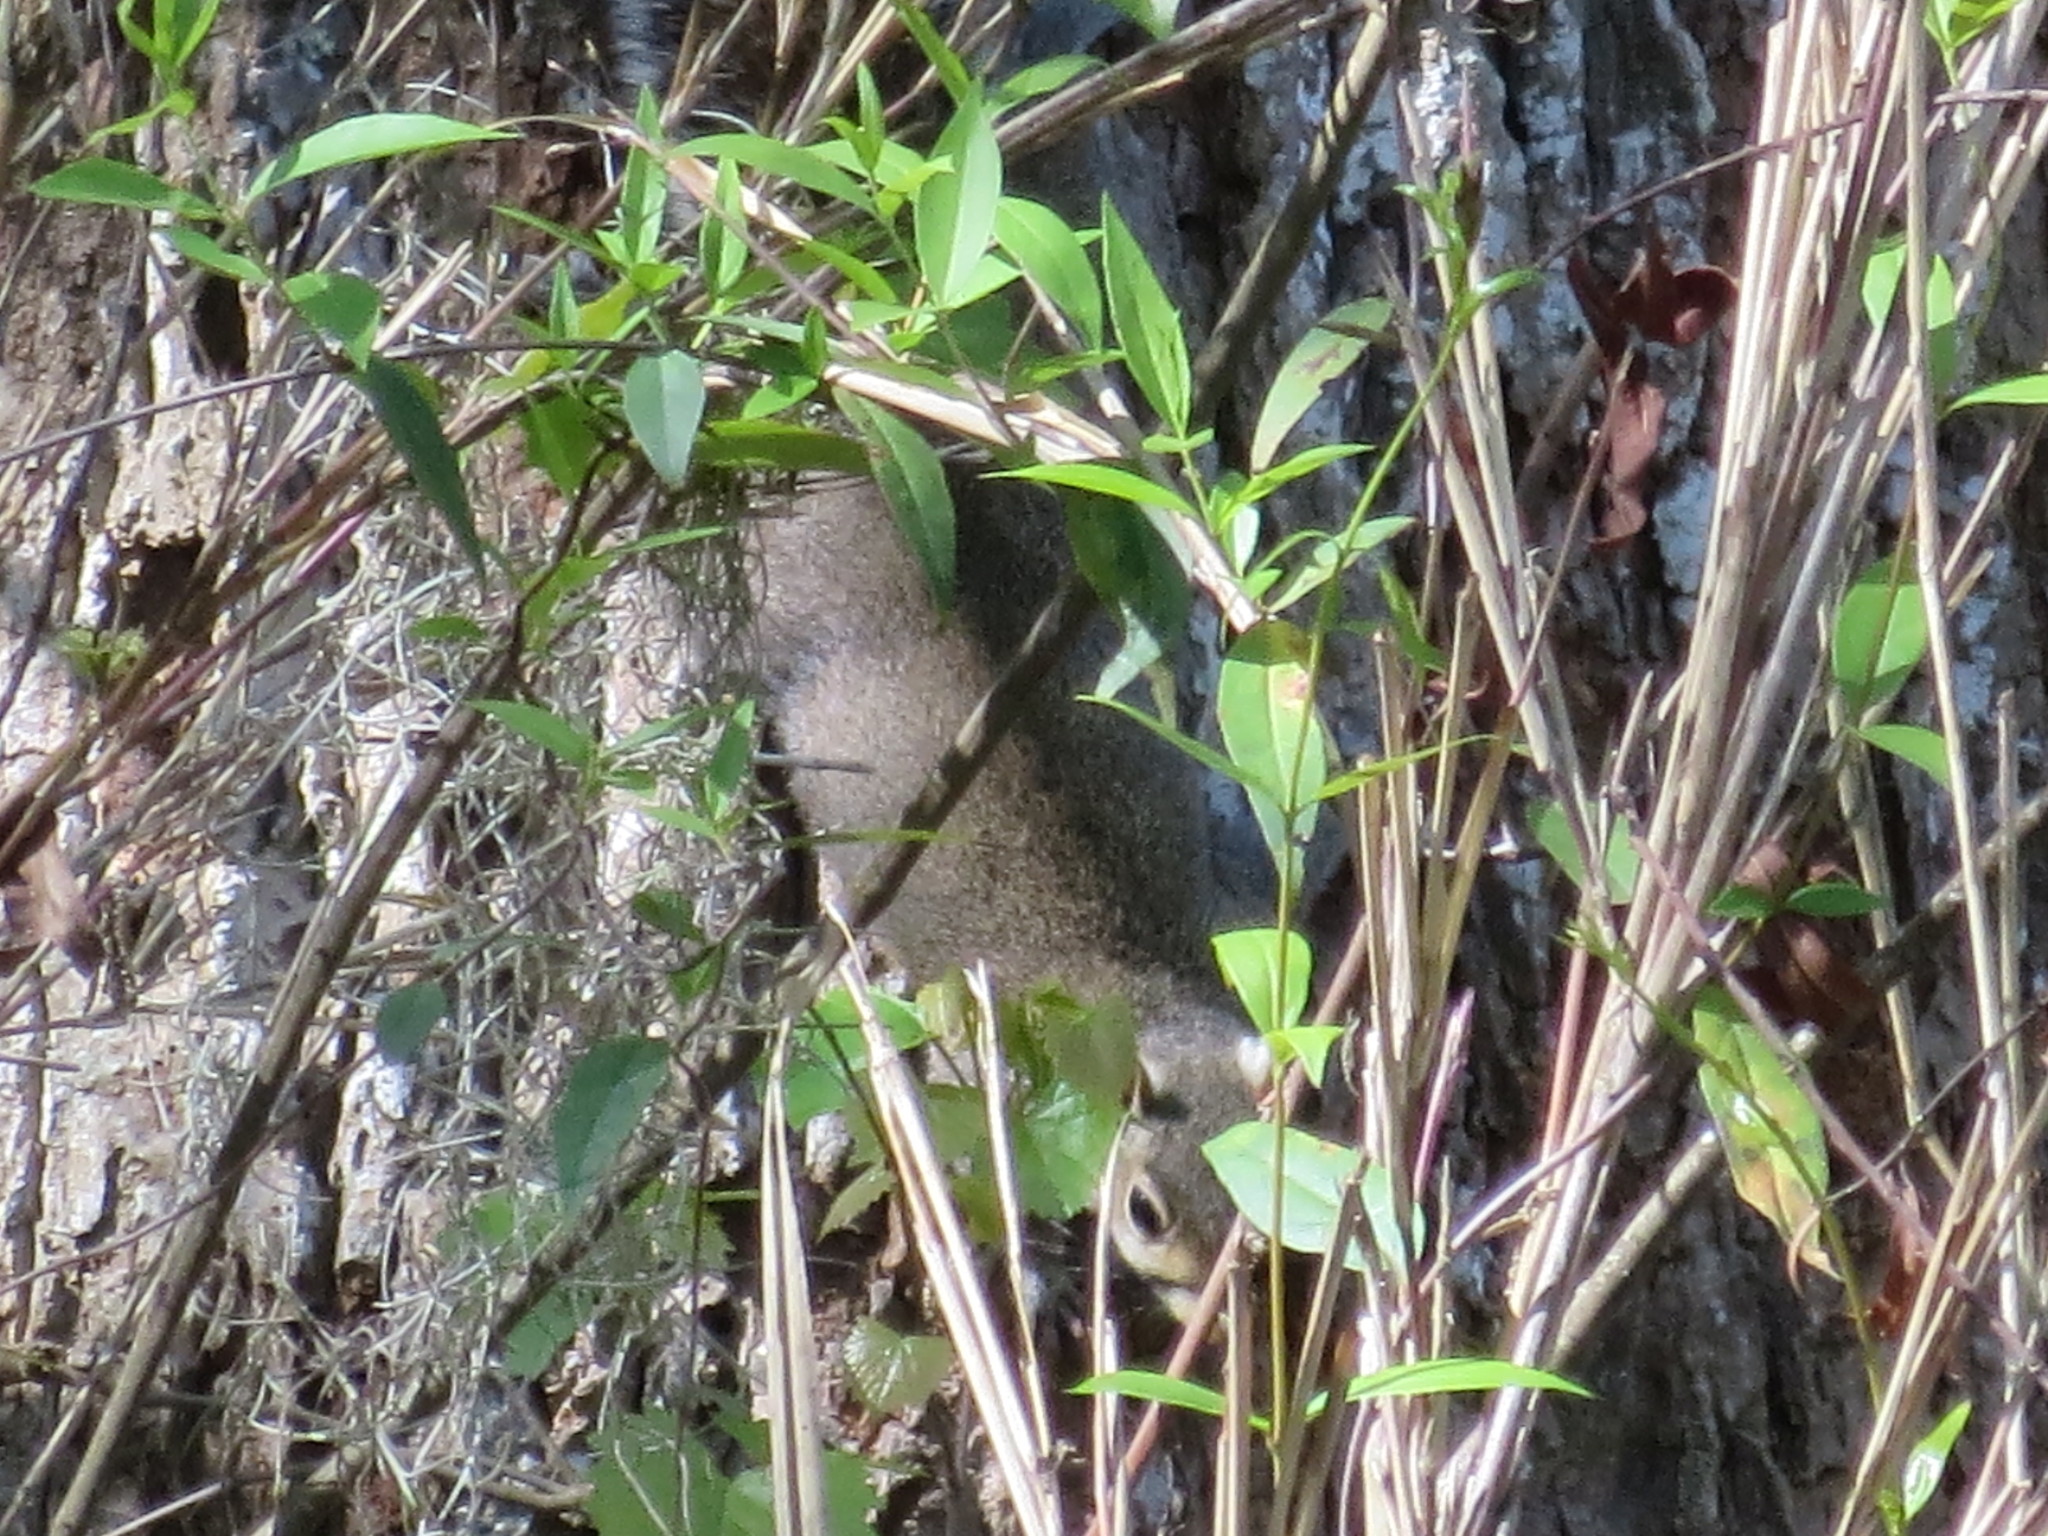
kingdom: Animalia
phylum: Chordata
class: Mammalia
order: Rodentia
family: Sciuridae
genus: Sciurus
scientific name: Sciurus carolinensis
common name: Eastern gray squirrel
